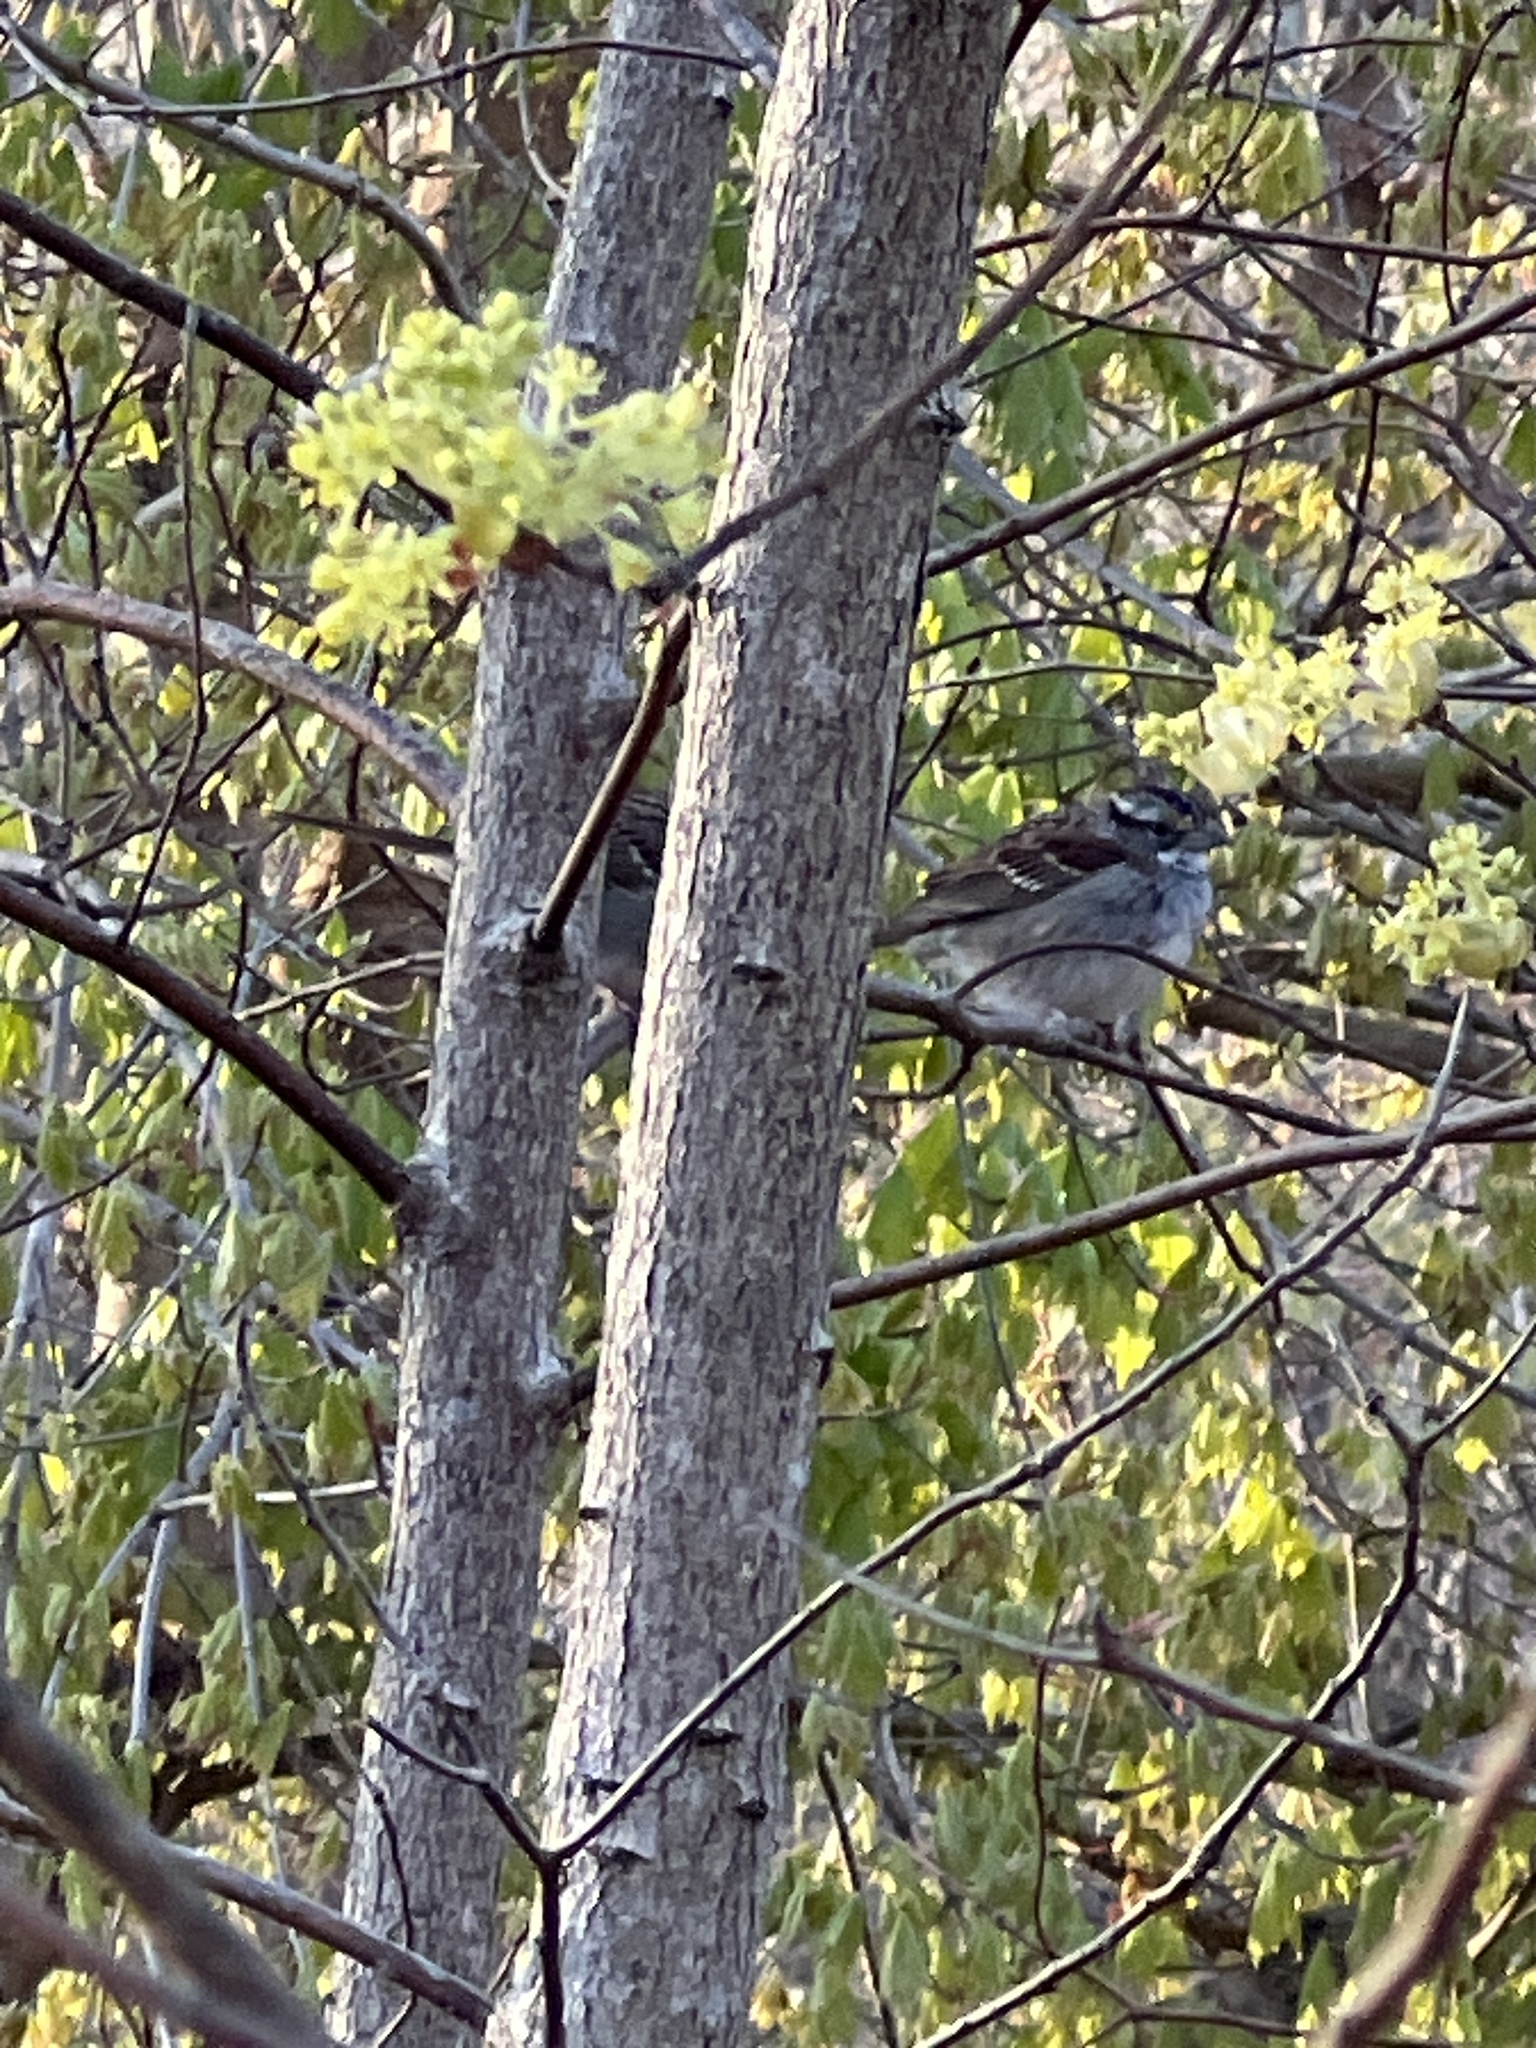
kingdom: Animalia
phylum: Chordata
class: Aves
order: Passeriformes
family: Passerellidae
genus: Zonotrichia
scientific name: Zonotrichia albicollis
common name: White-throated sparrow
